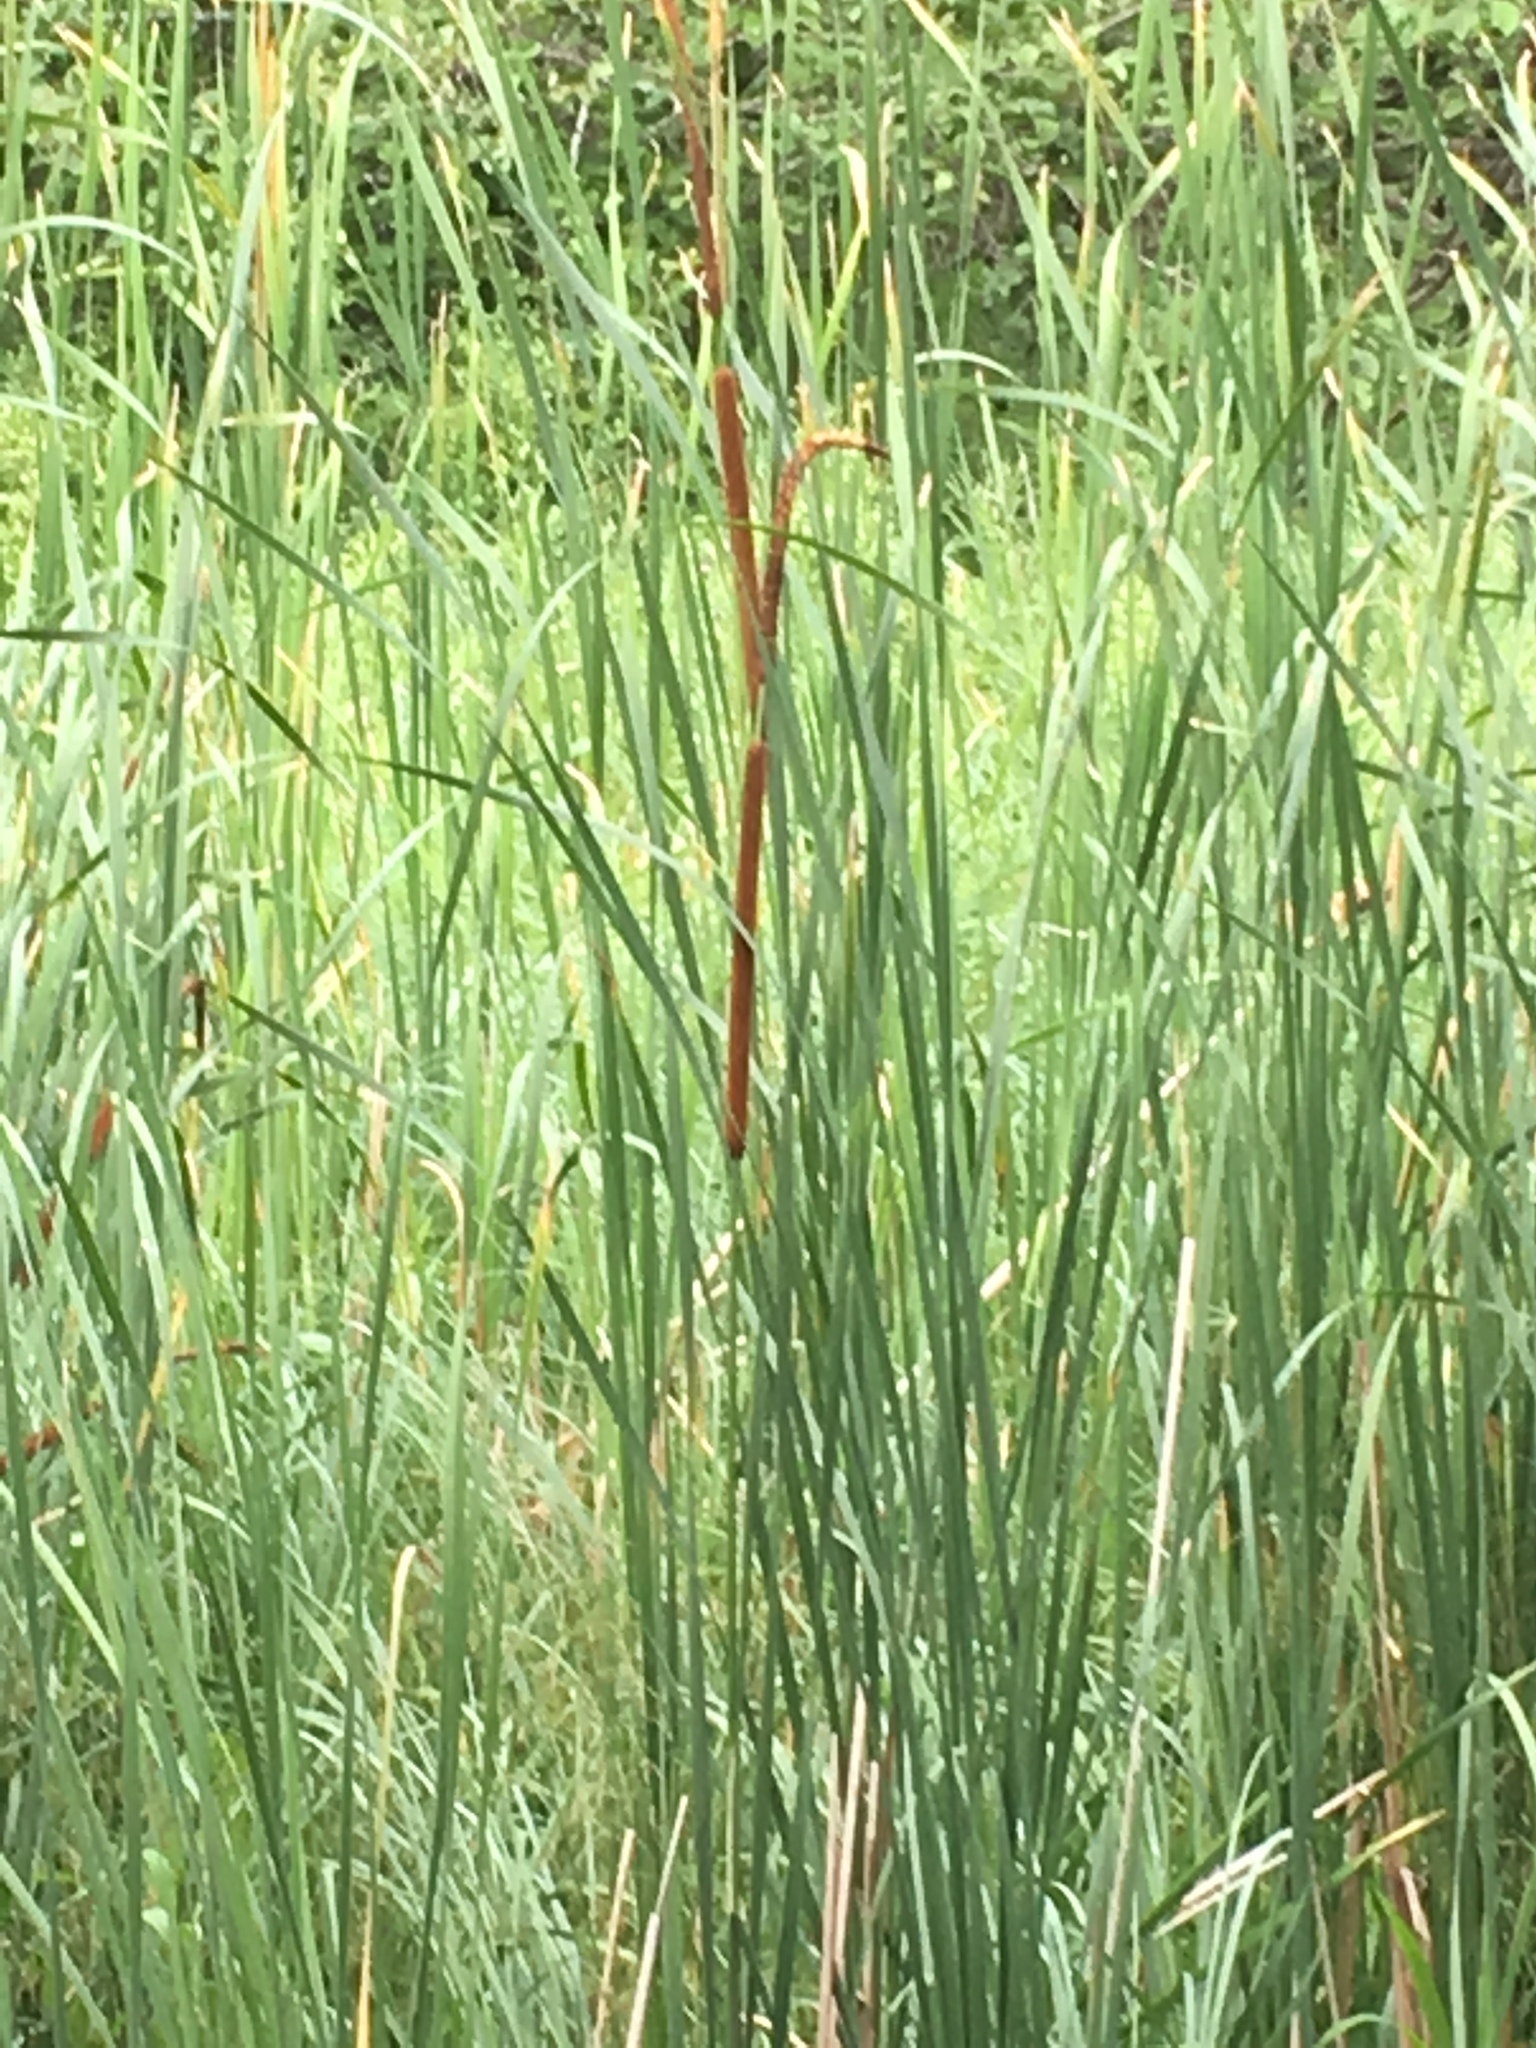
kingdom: Plantae
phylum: Tracheophyta
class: Liliopsida
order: Poales
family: Typhaceae
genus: Typha
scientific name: Typha angustifolia
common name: Lesser bulrush
